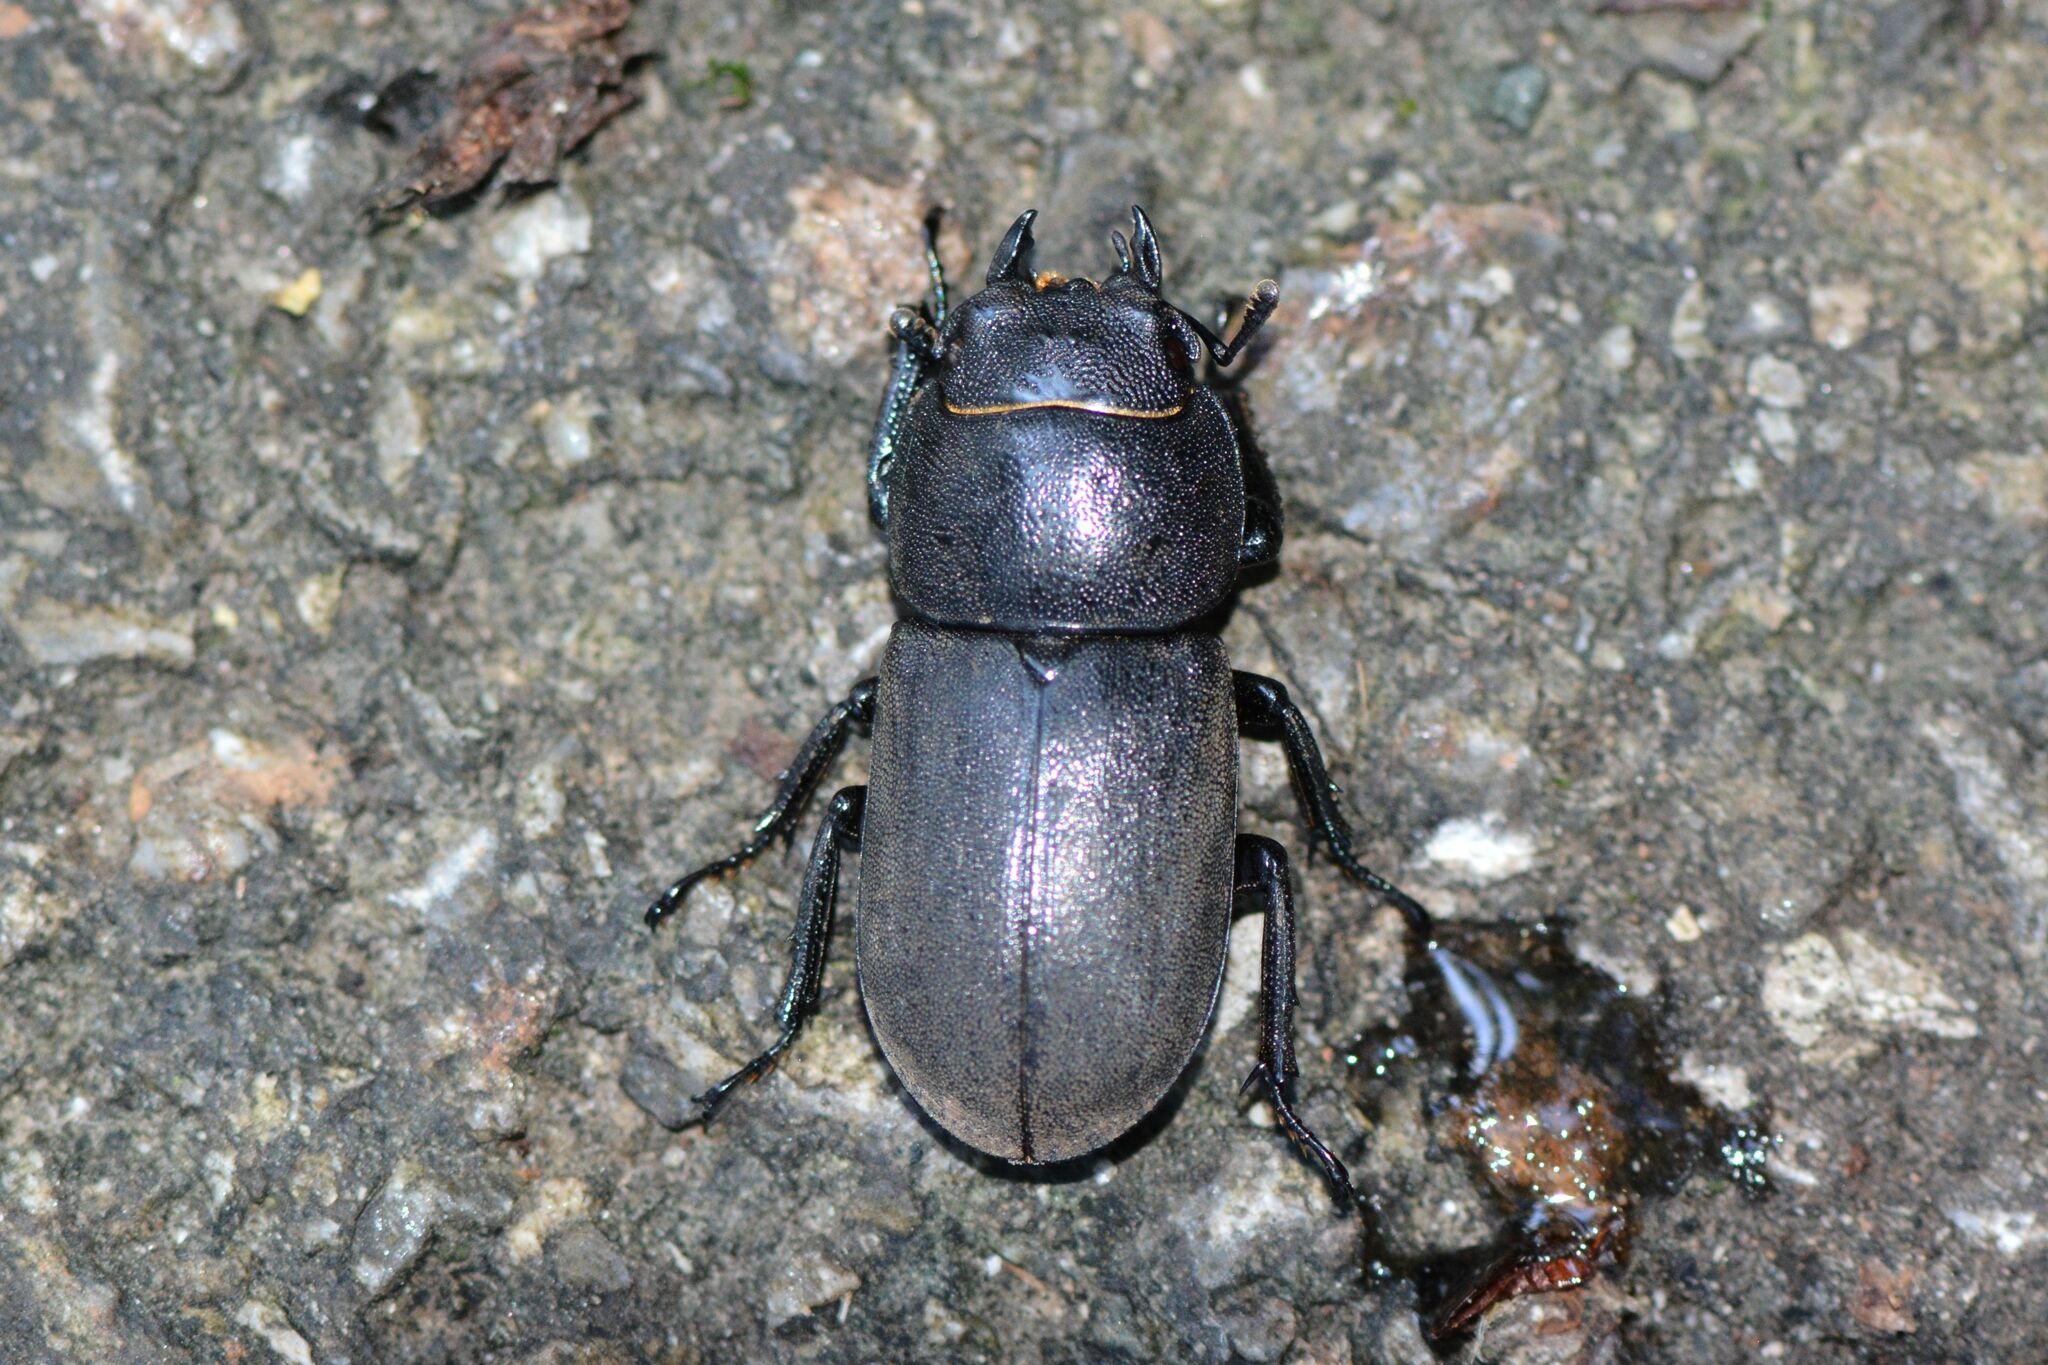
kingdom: Animalia
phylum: Arthropoda
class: Insecta
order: Coleoptera
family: Lucanidae
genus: Dorcus
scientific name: Dorcus parallelipipedus
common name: Lesser stag beetle
